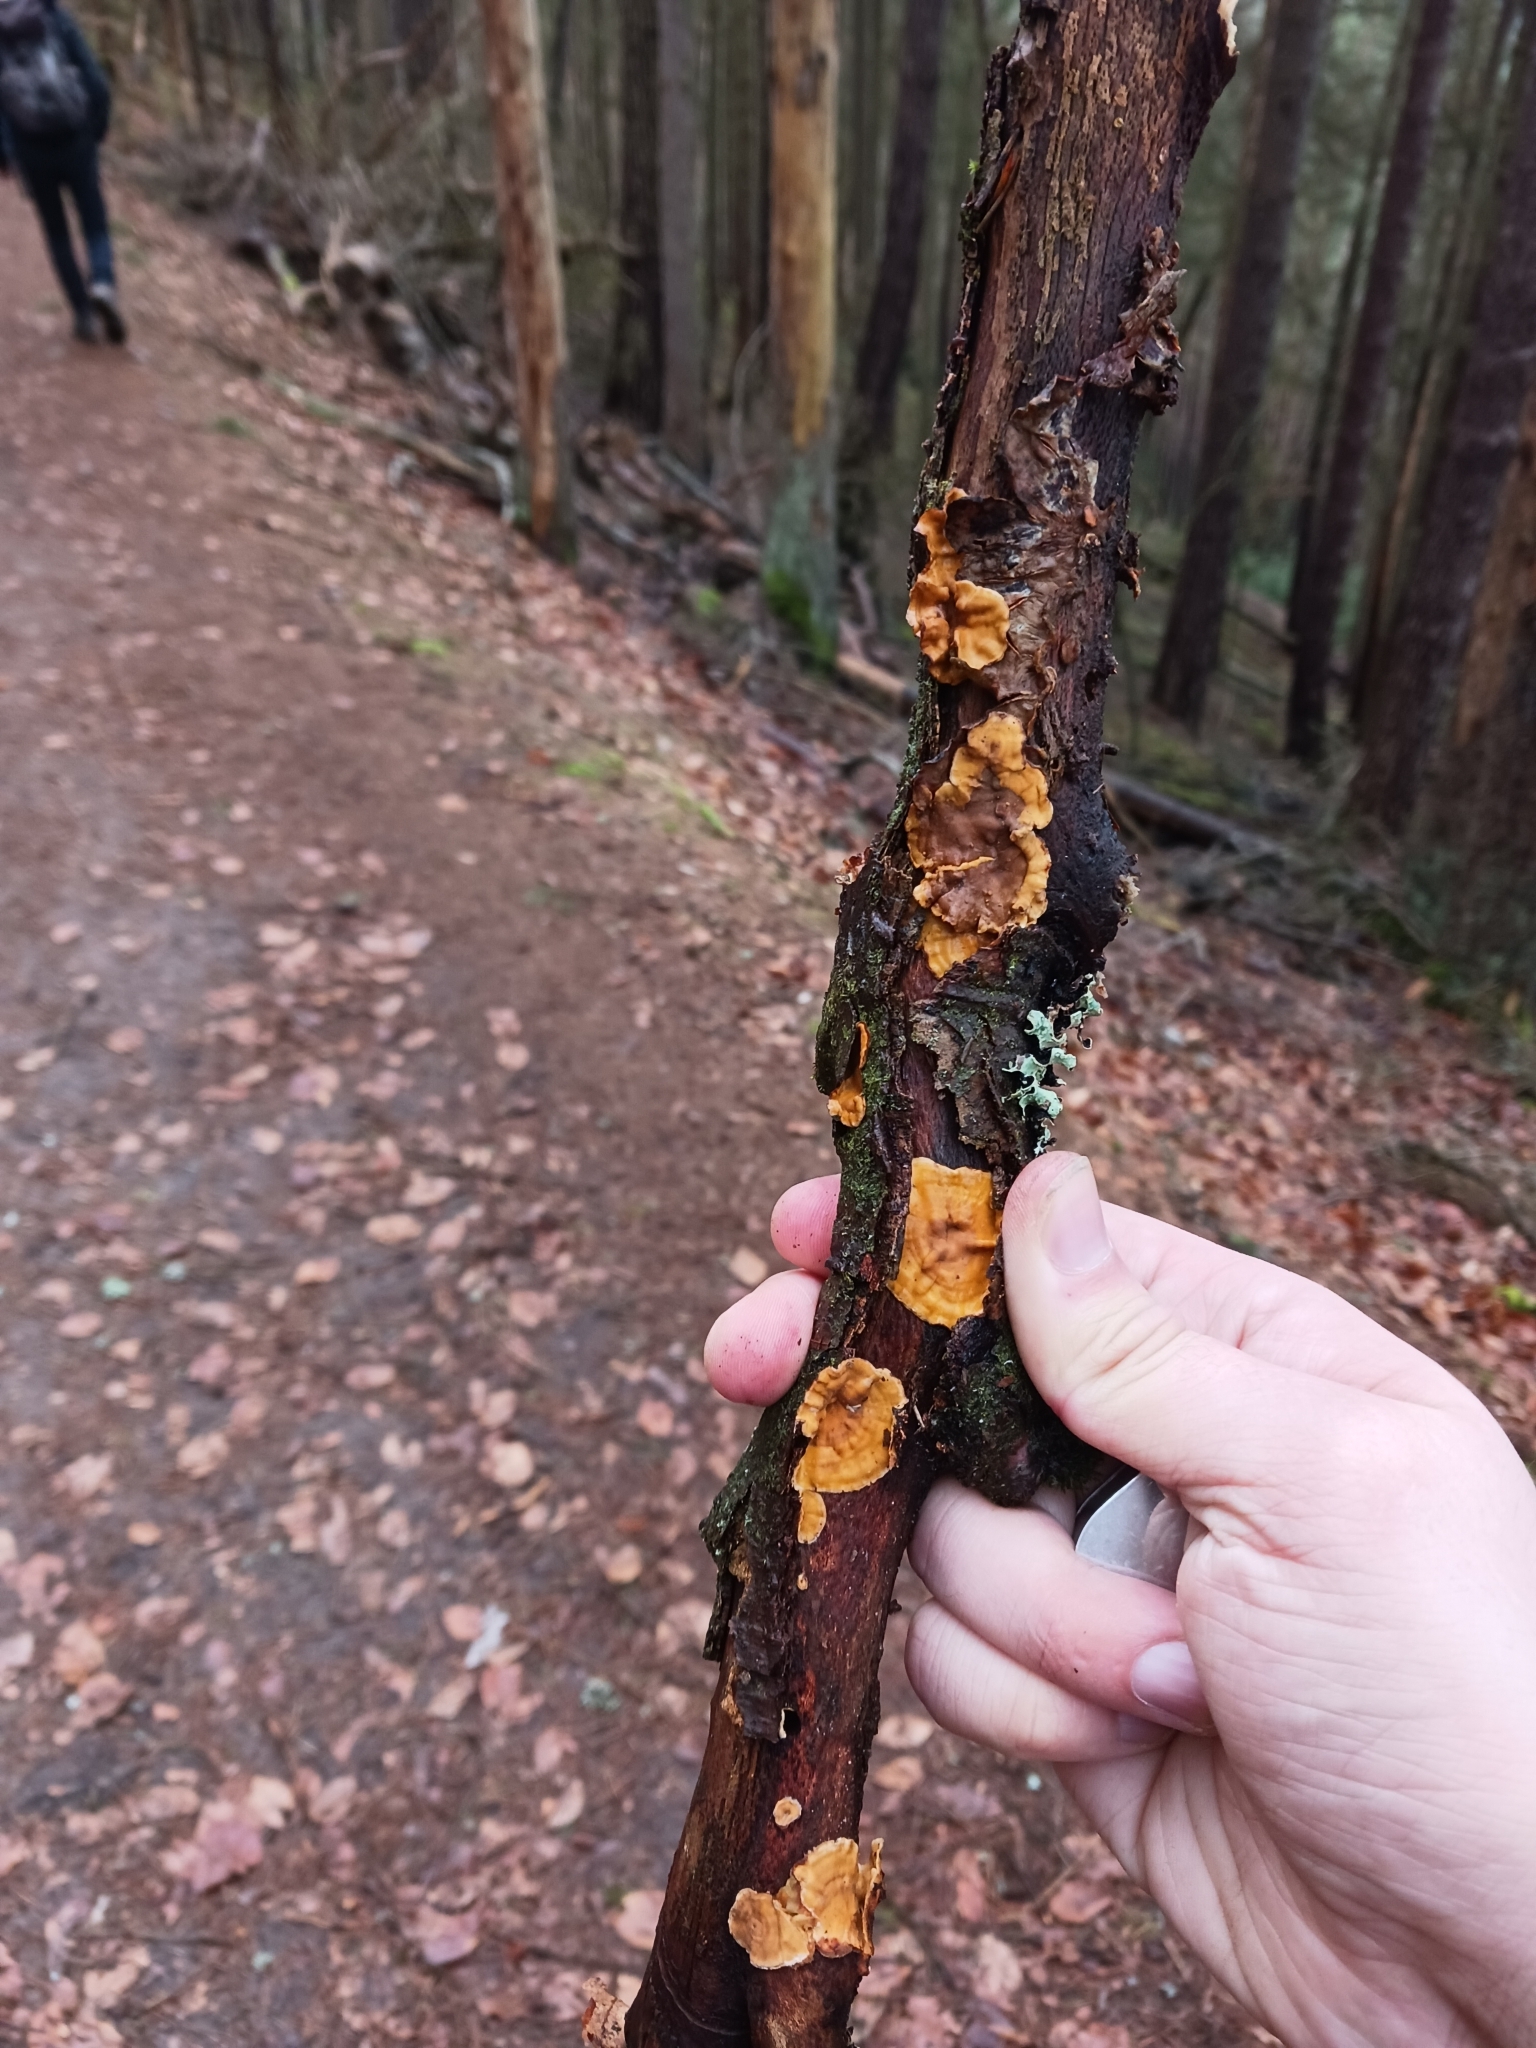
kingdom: Fungi
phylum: Basidiomycota
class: Agaricomycetes
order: Russulales
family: Stereaceae
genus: Stereum
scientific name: Stereum
